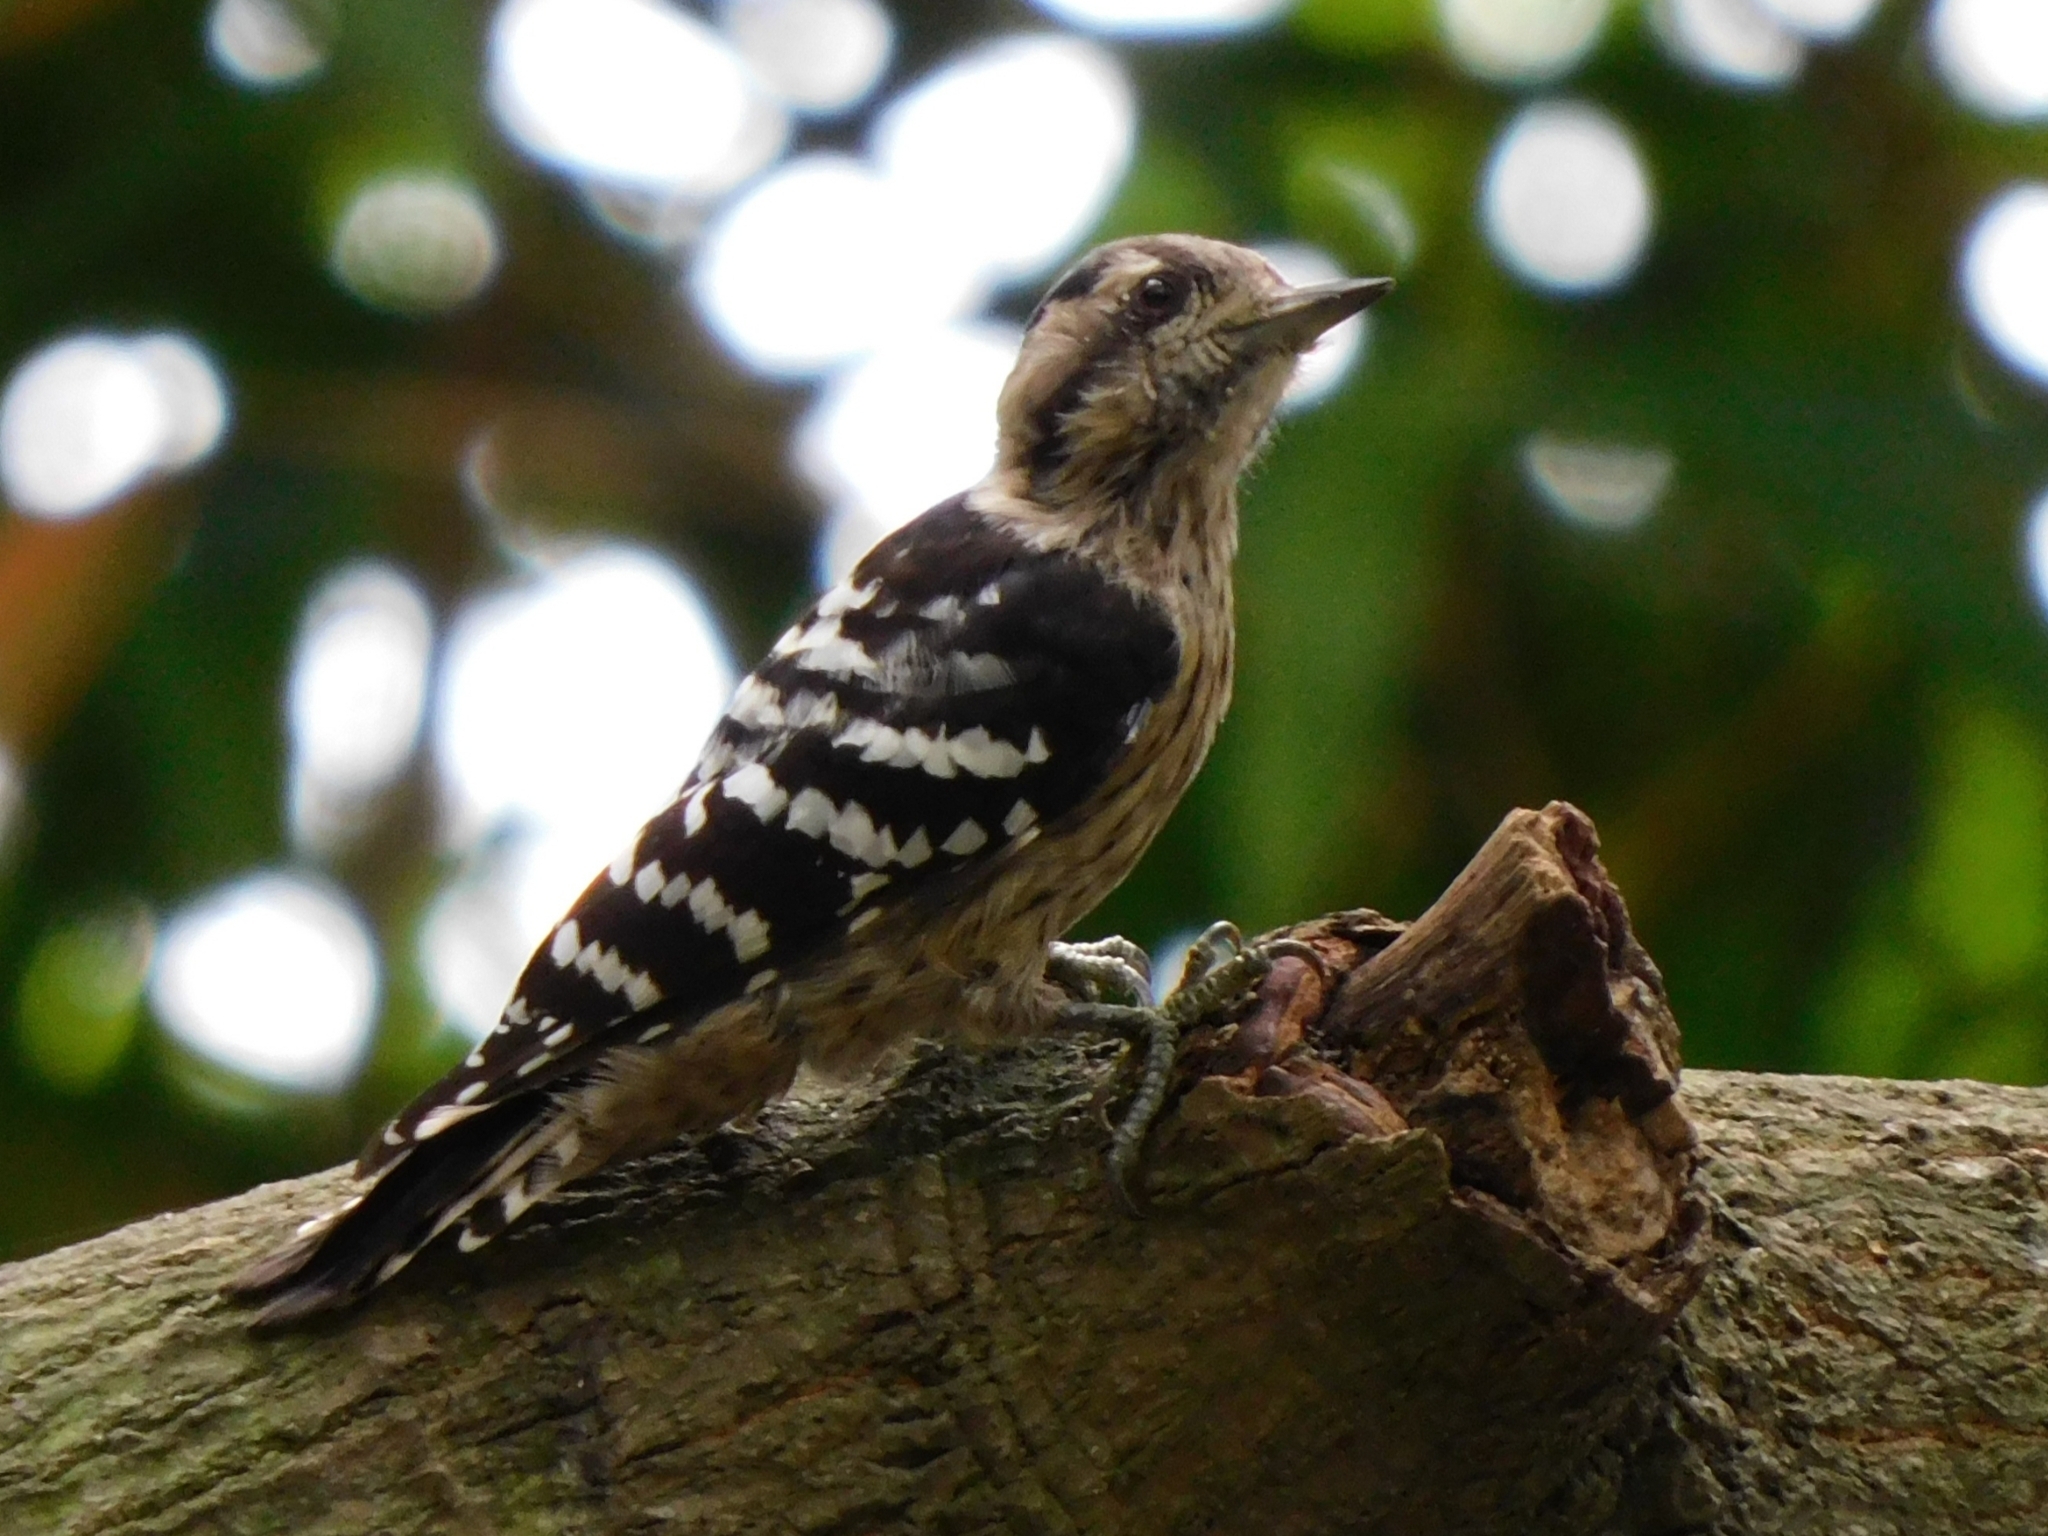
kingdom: Animalia
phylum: Chordata
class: Aves
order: Piciformes
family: Picidae
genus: Yungipicus
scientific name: Yungipicus canicapillus
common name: Grey-capped pygmy woodpecker
